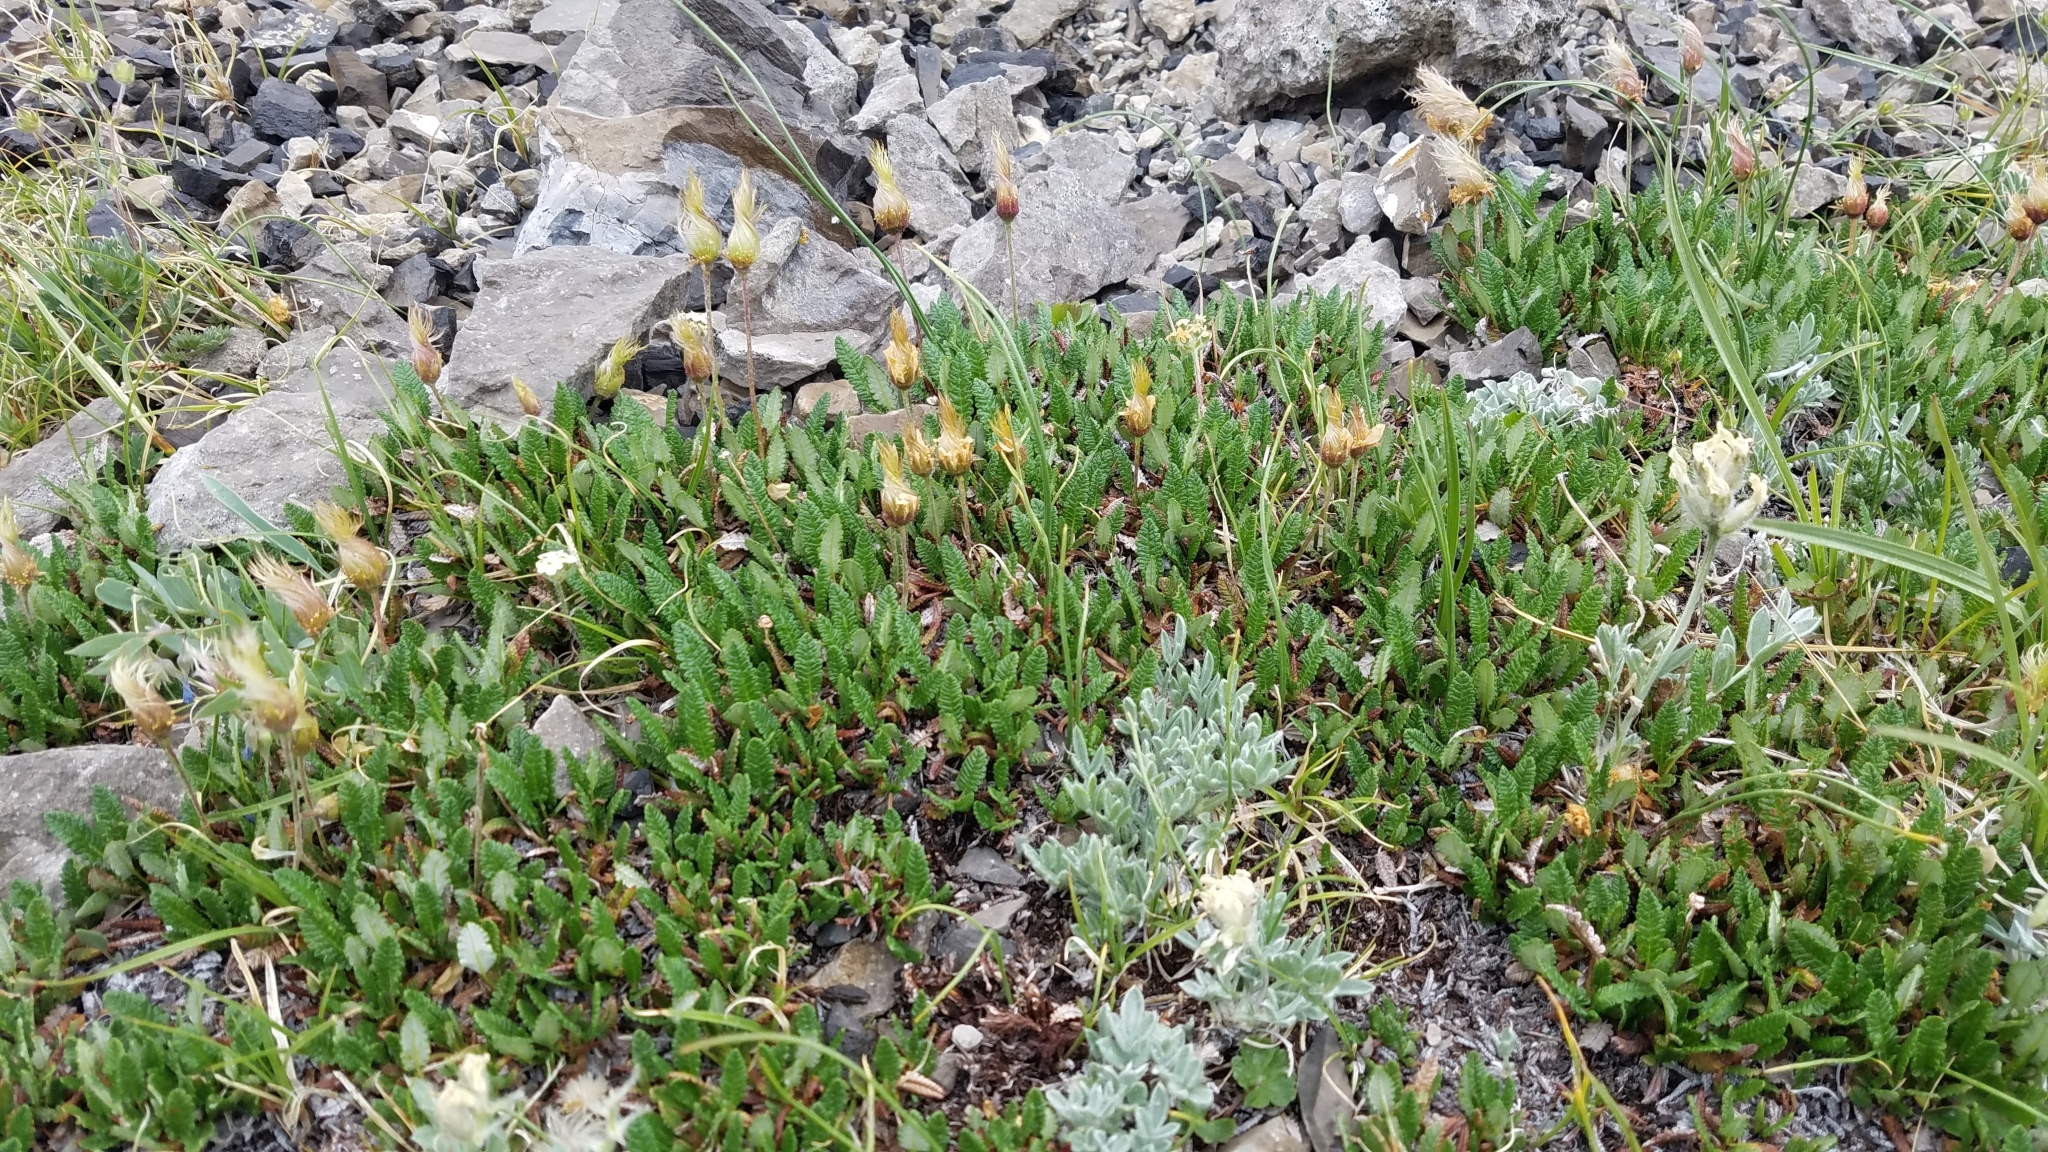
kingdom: Plantae
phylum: Tracheophyta
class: Magnoliopsida
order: Rosales
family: Rosaceae
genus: Dryas
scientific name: Dryas octopetala
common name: Eight-petal mountain-avens
